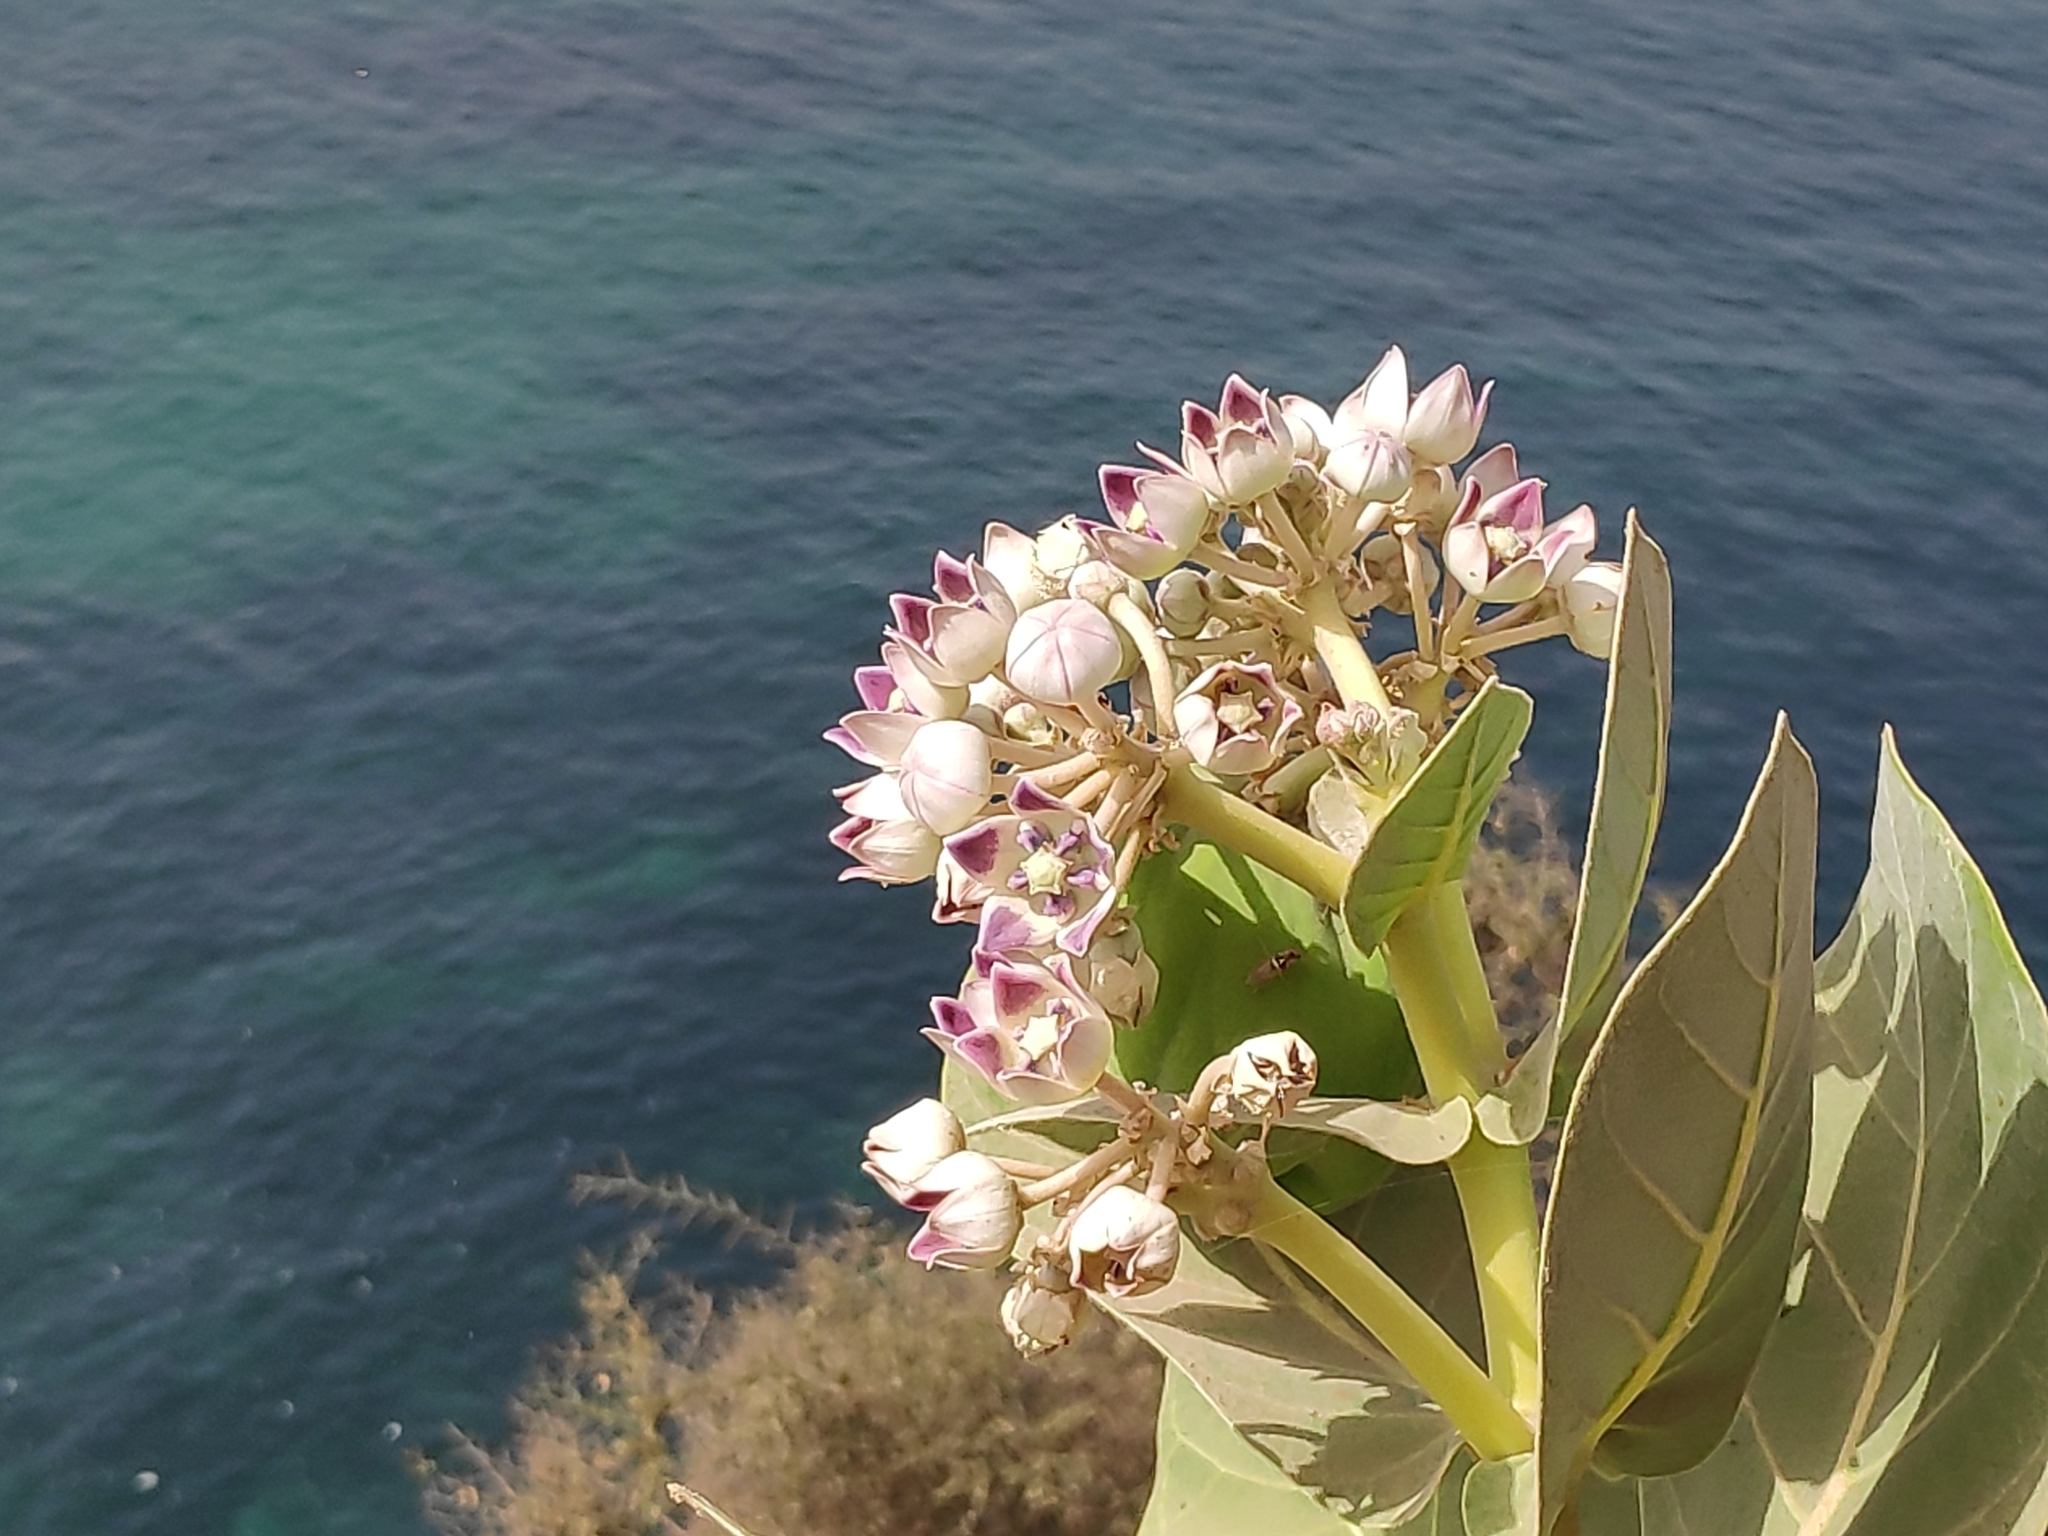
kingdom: Plantae
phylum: Tracheophyta
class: Magnoliopsida
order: Gentianales
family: Apocynaceae
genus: Calotropis
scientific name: Calotropis procera
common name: Roostertree
